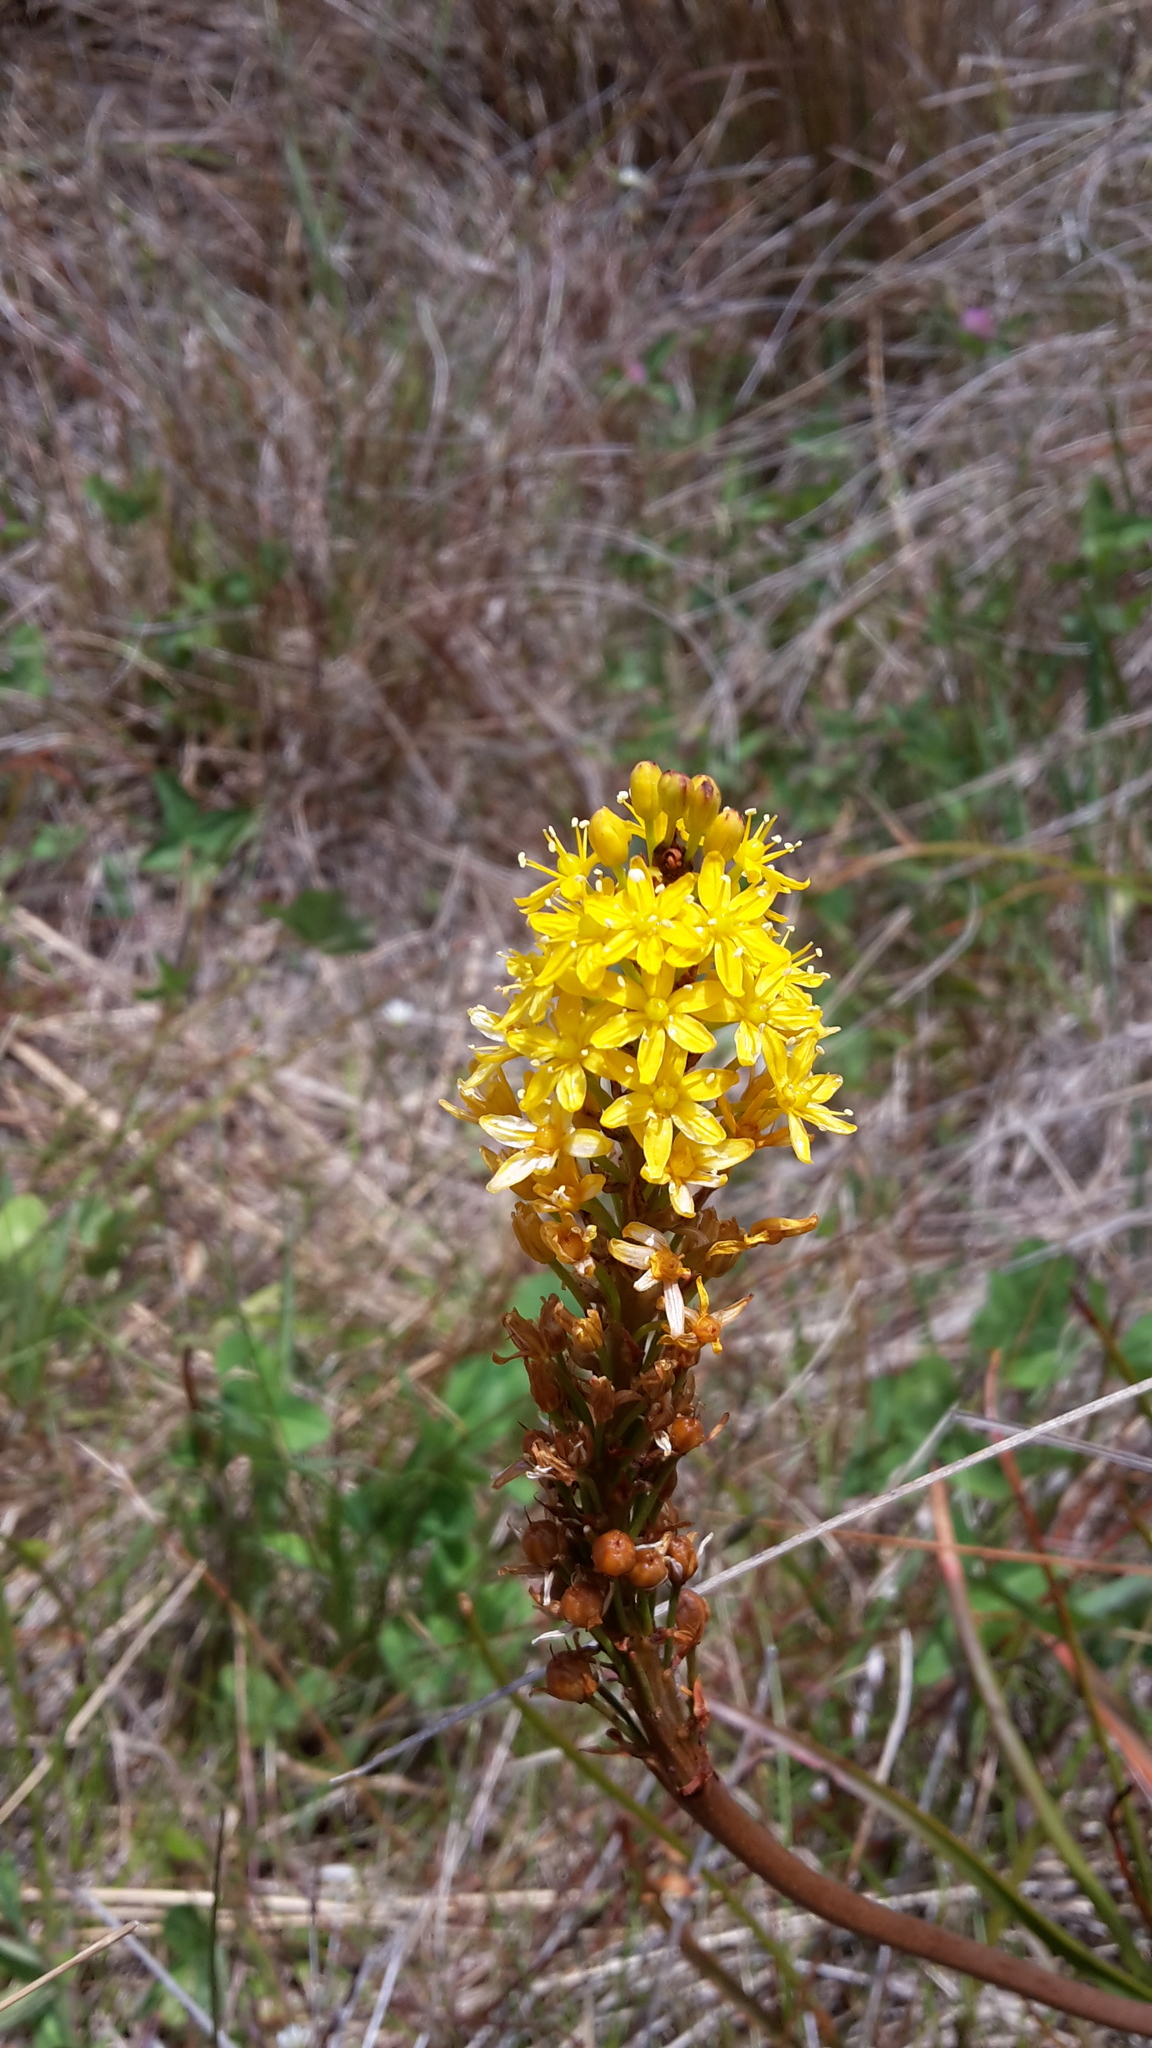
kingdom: Plantae
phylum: Tracheophyta
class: Liliopsida
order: Asparagales
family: Asphodelaceae
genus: Bulbinella
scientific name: Bulbinella angustifolia
